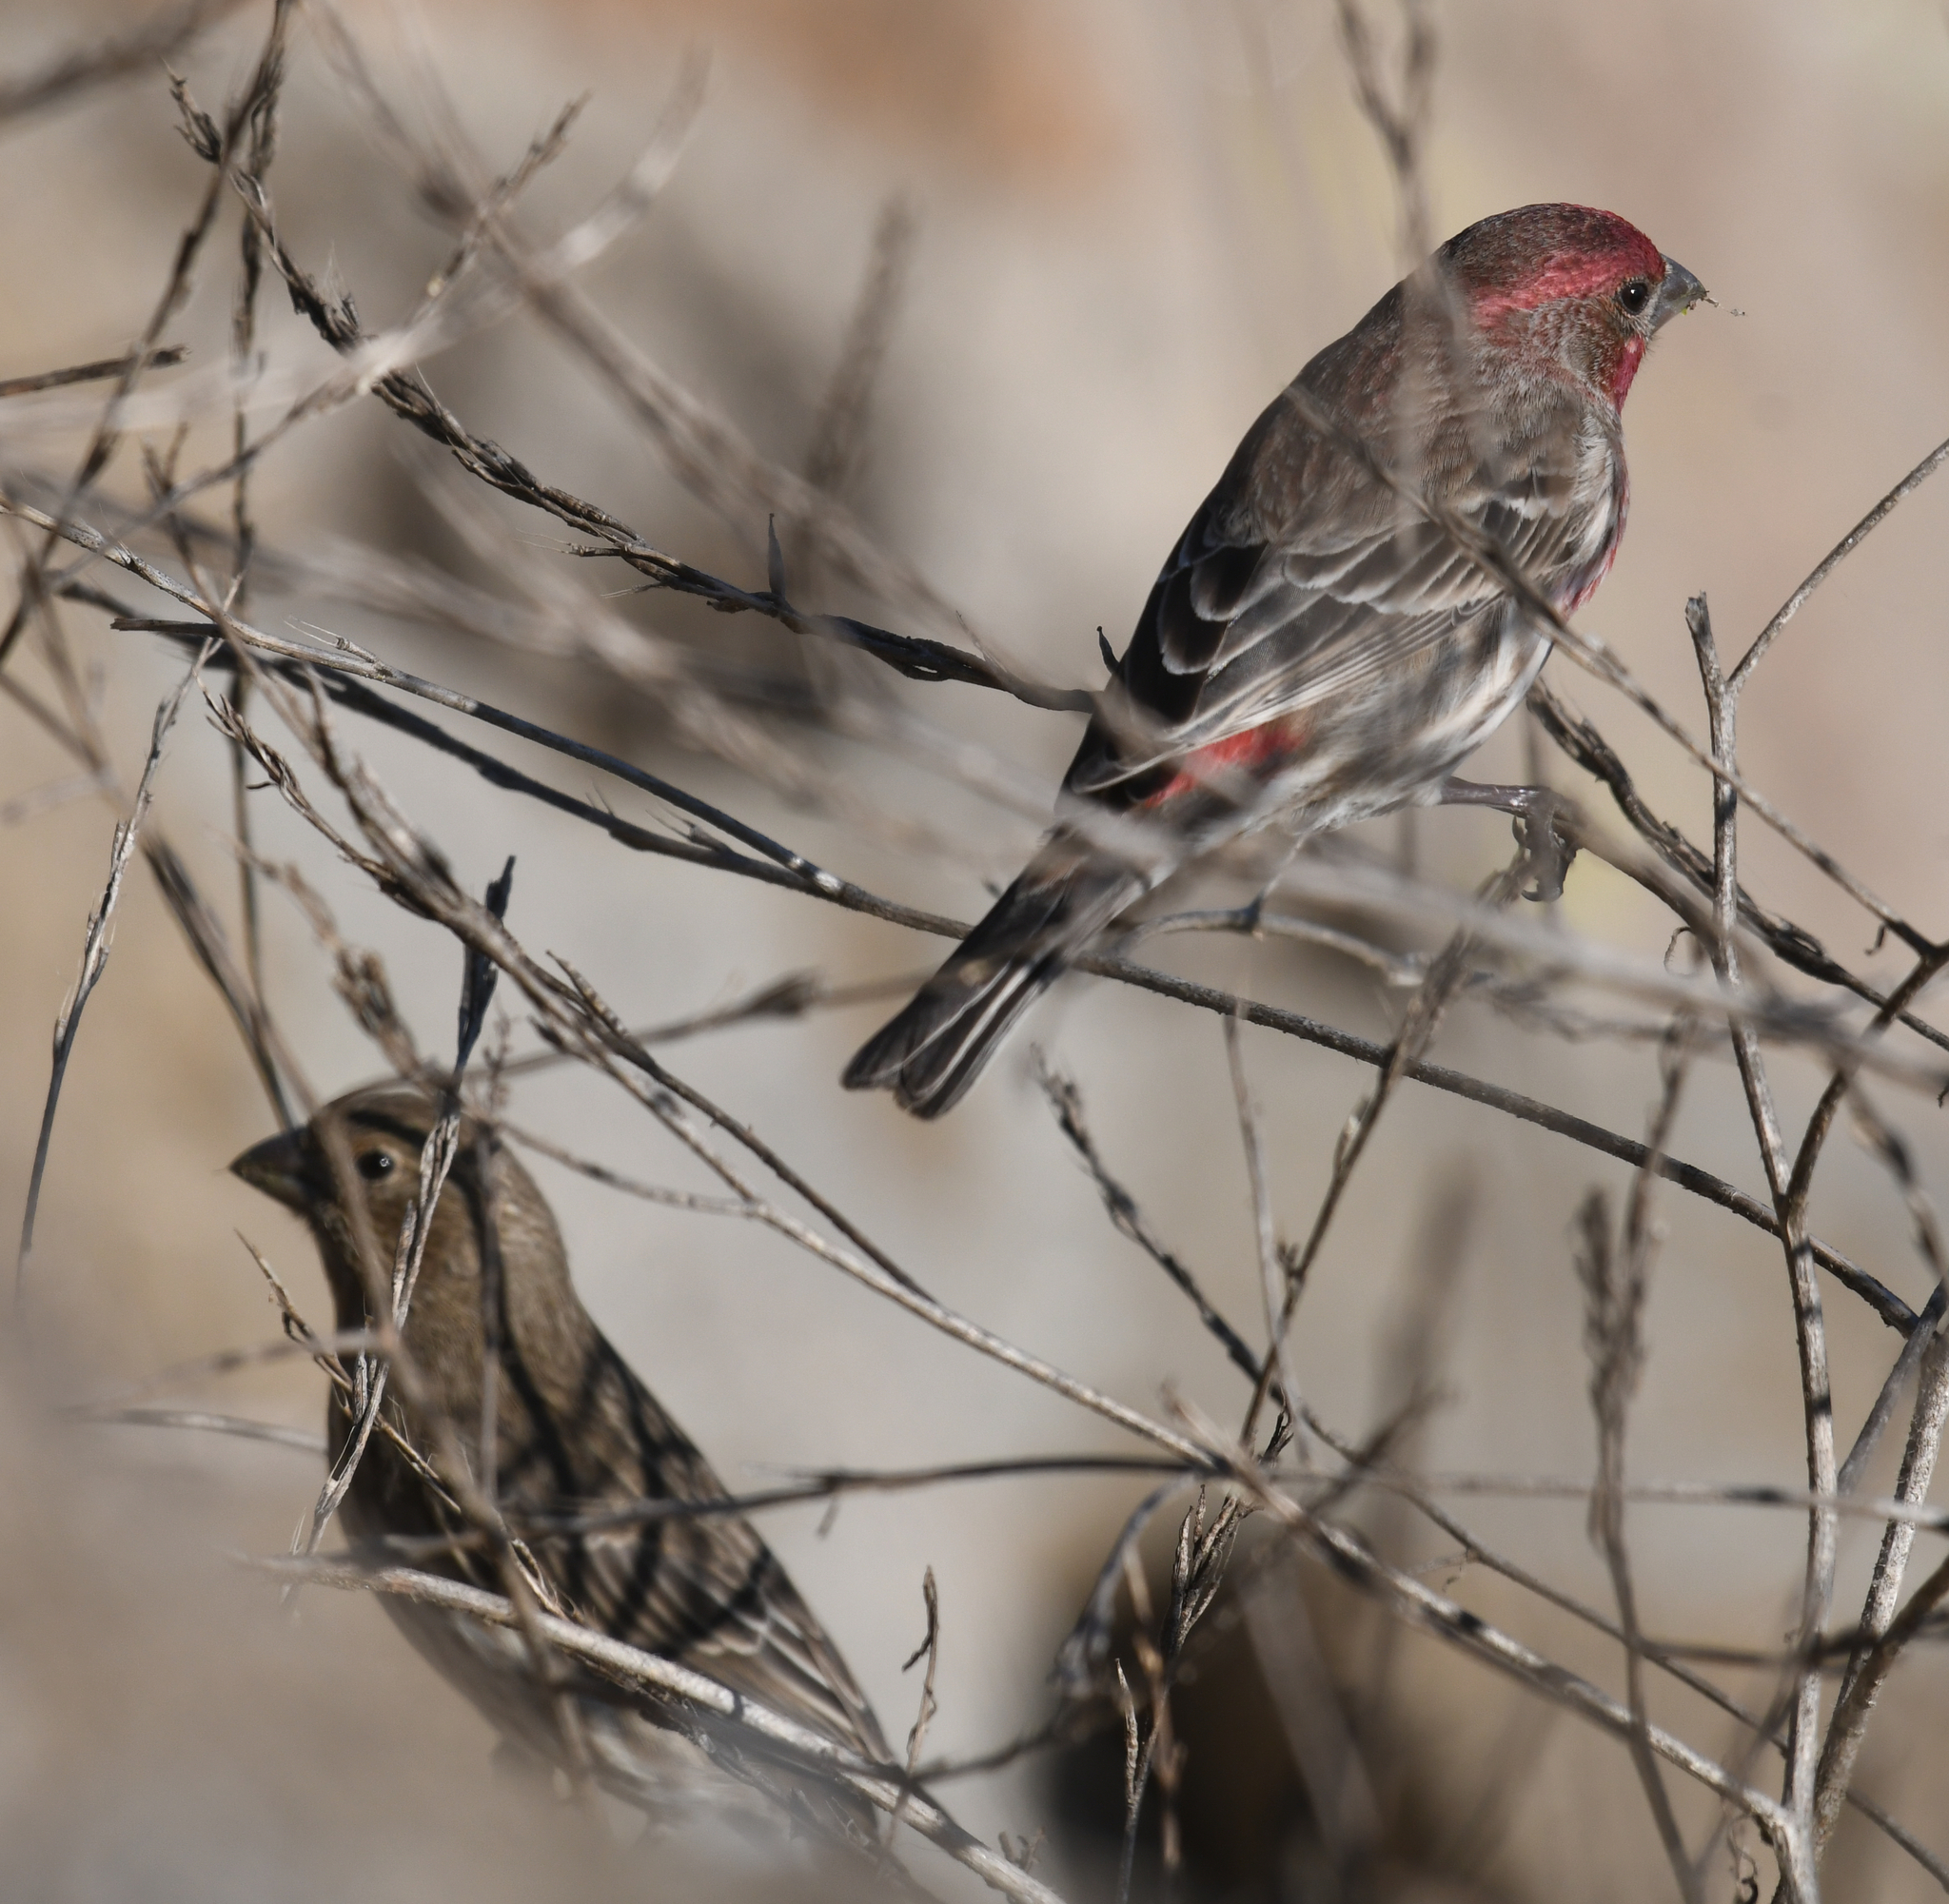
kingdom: Animalia
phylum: Chordata
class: Aves
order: Passeriformes
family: Fringillidae
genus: Haemorhous
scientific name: Haemorhous mexicanus
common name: House finch
